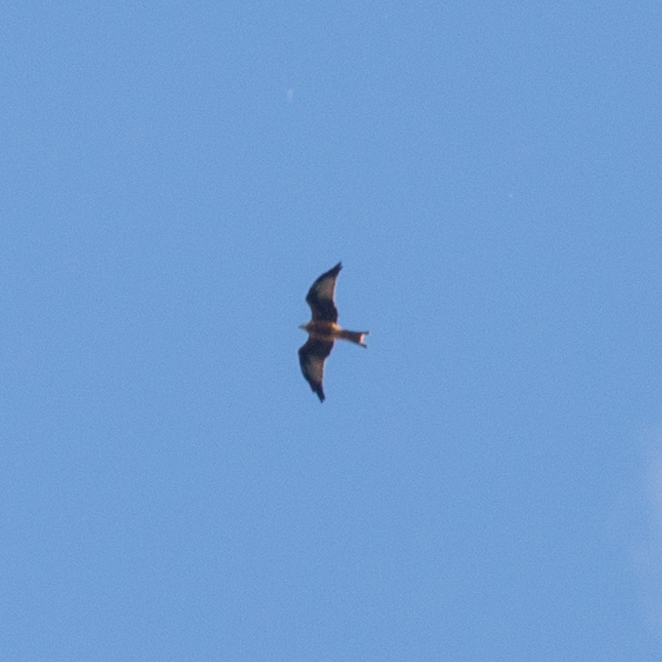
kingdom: Animalia
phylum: Chordata
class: Aves
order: Accipitriformes
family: Accipitridae
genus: Milvus
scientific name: Milvus milvus
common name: Red kite
